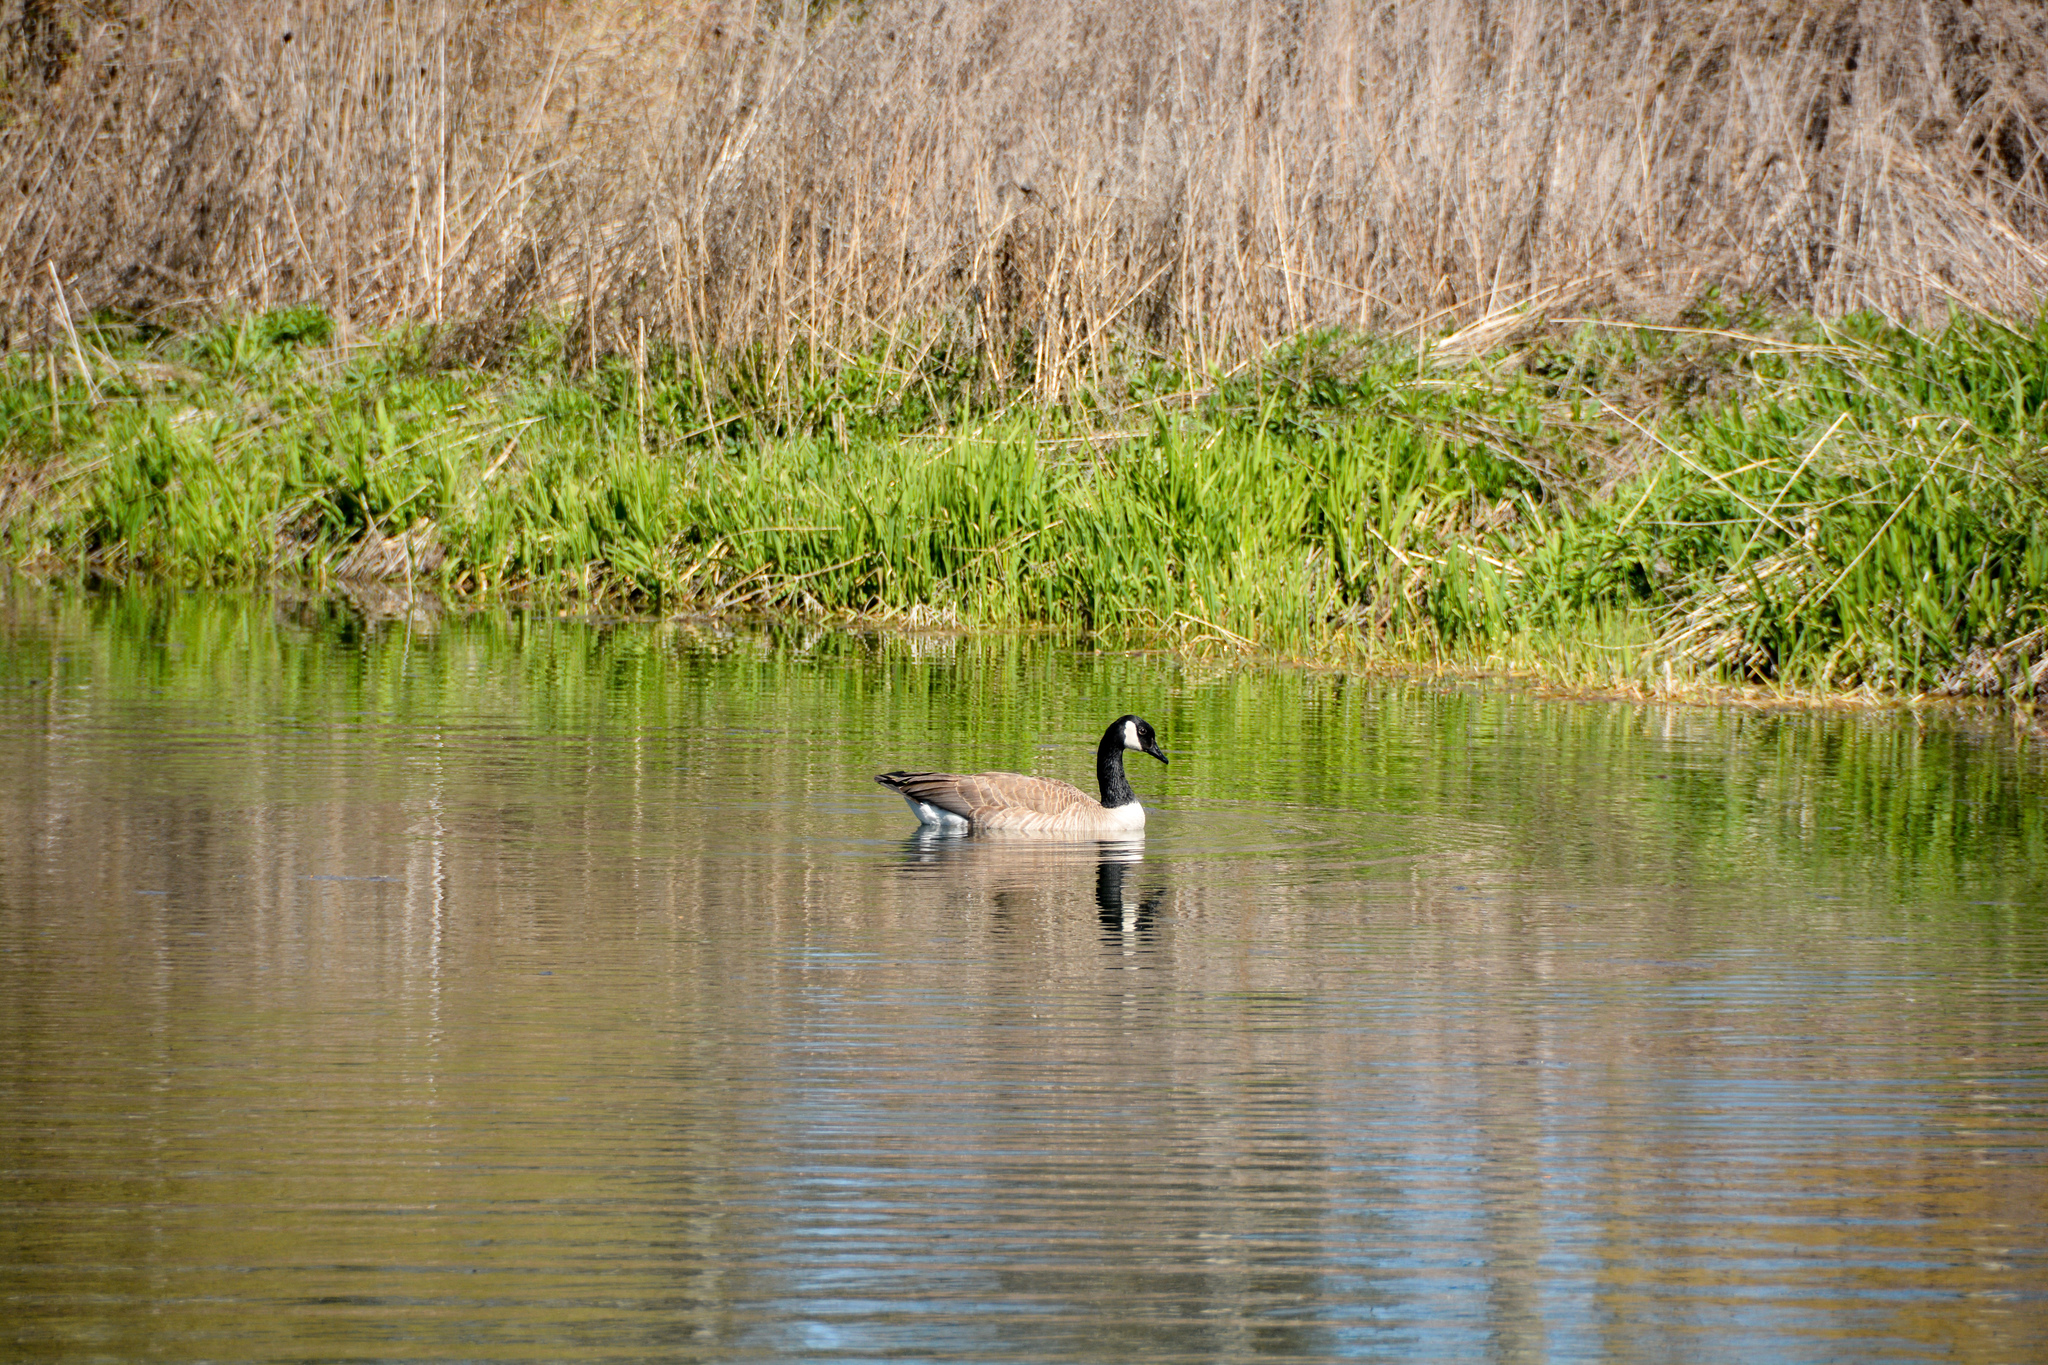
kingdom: Animalia
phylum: Chordata
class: Aves
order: Anseriformes
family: Anatidae
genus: Branta
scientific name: Branta canadensis
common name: Canada goose
